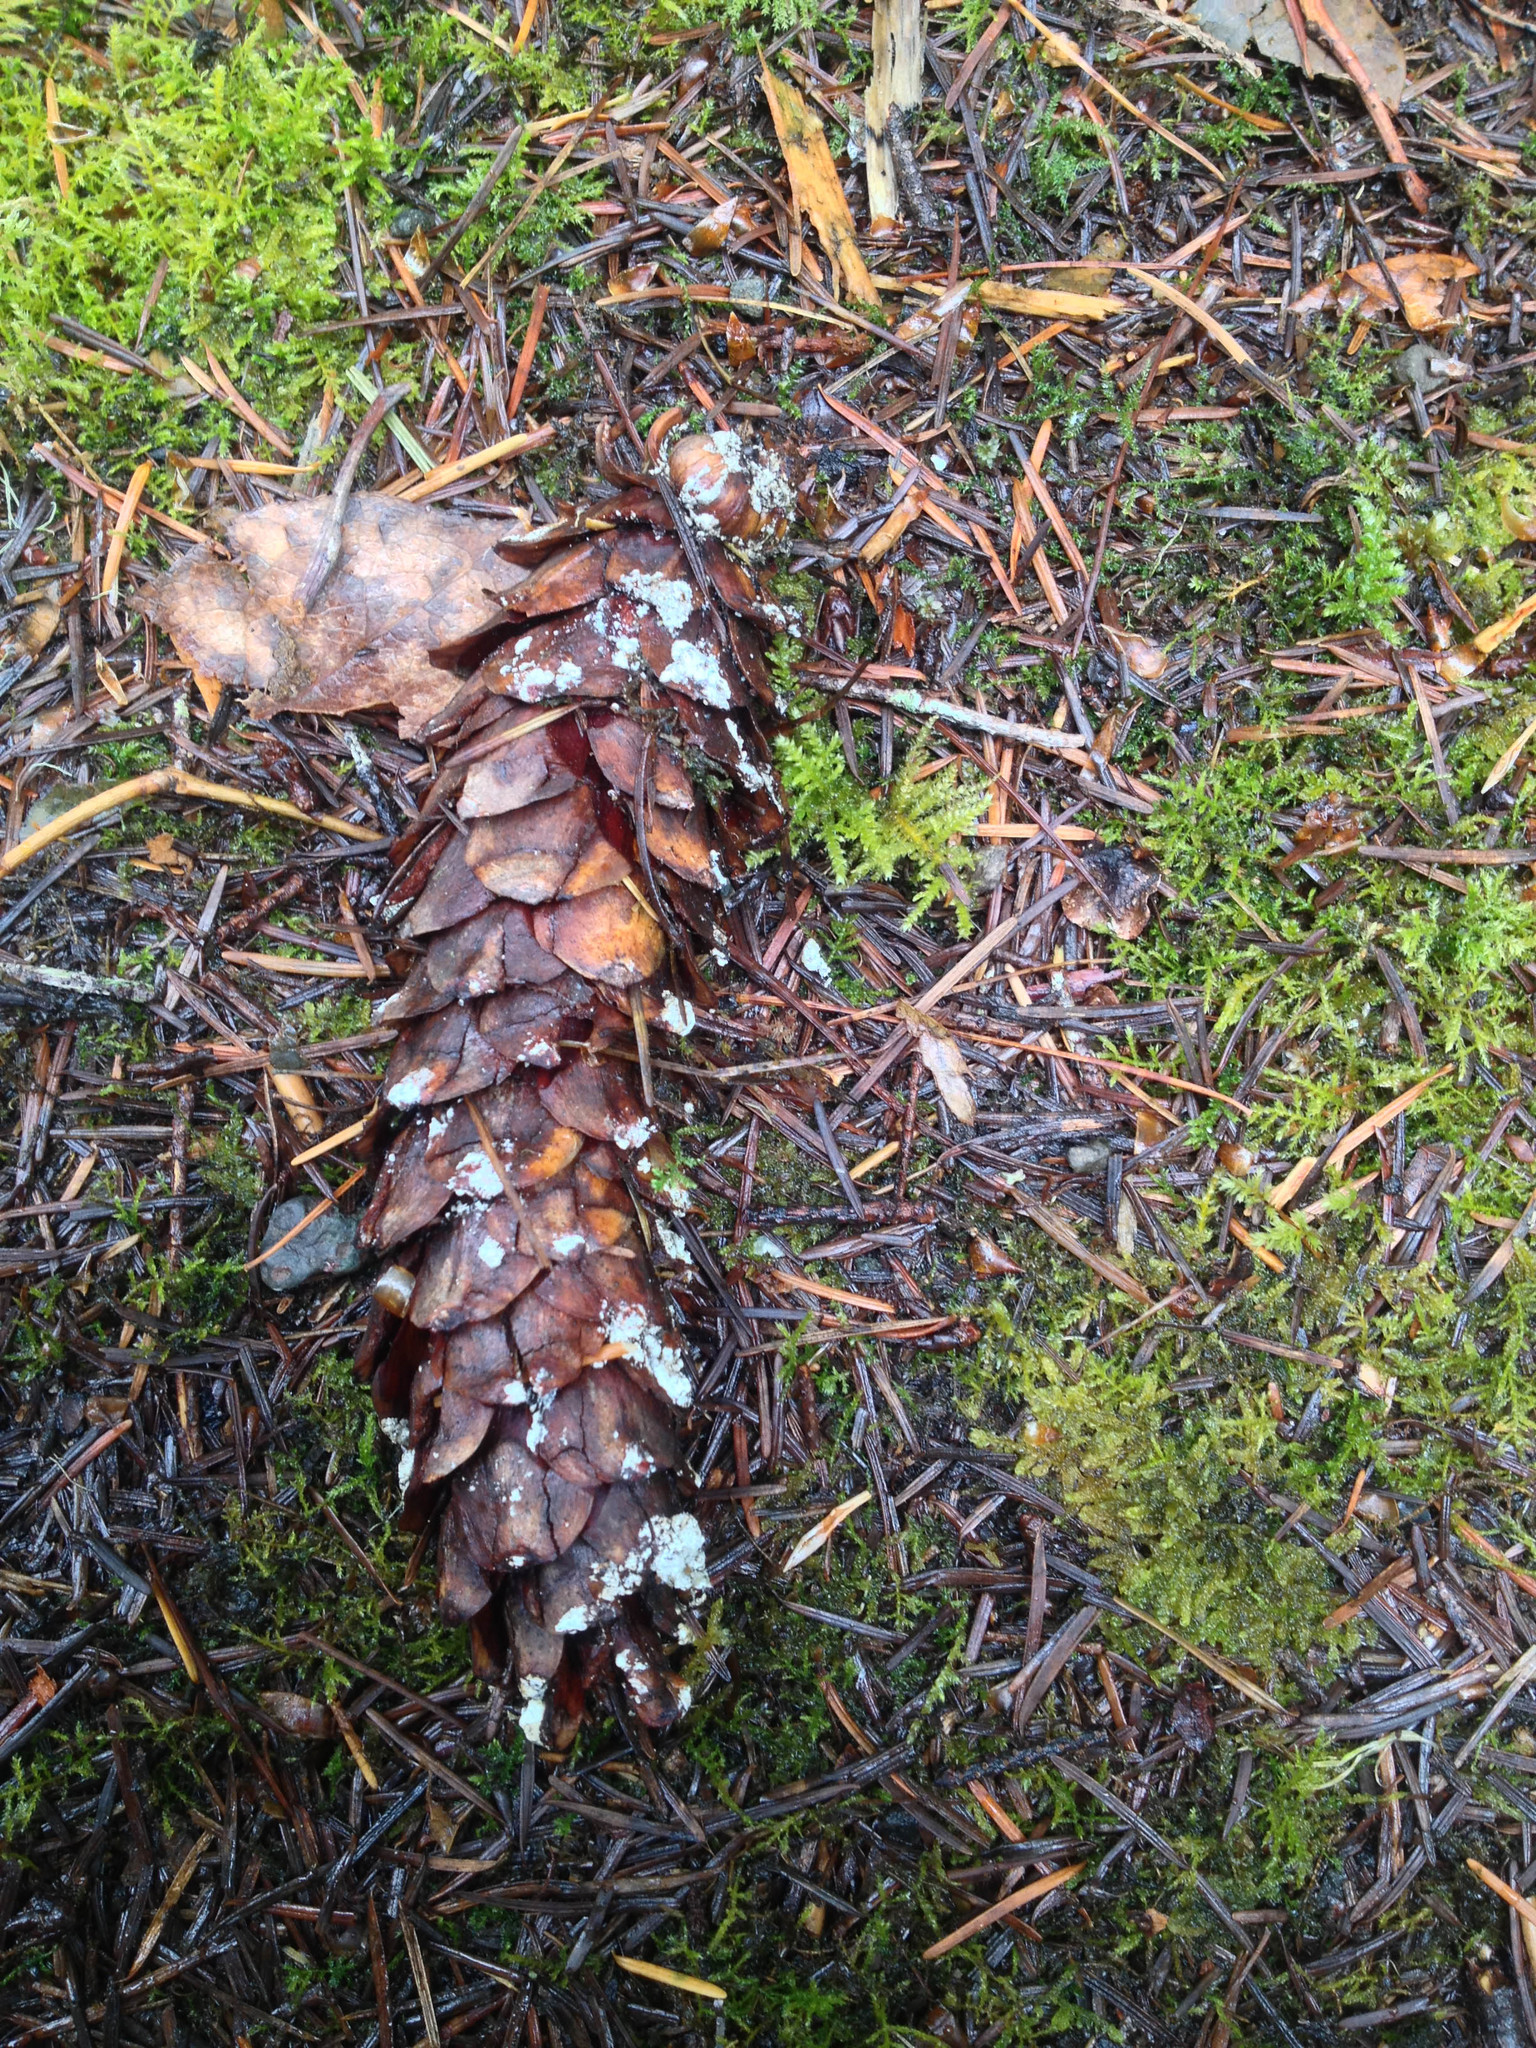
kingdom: Plantae
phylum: Tracheophyta
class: Pinopsida
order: Pinales
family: Pinaceae
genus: Pinus
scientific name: Pinus monticola
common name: Western white pine
